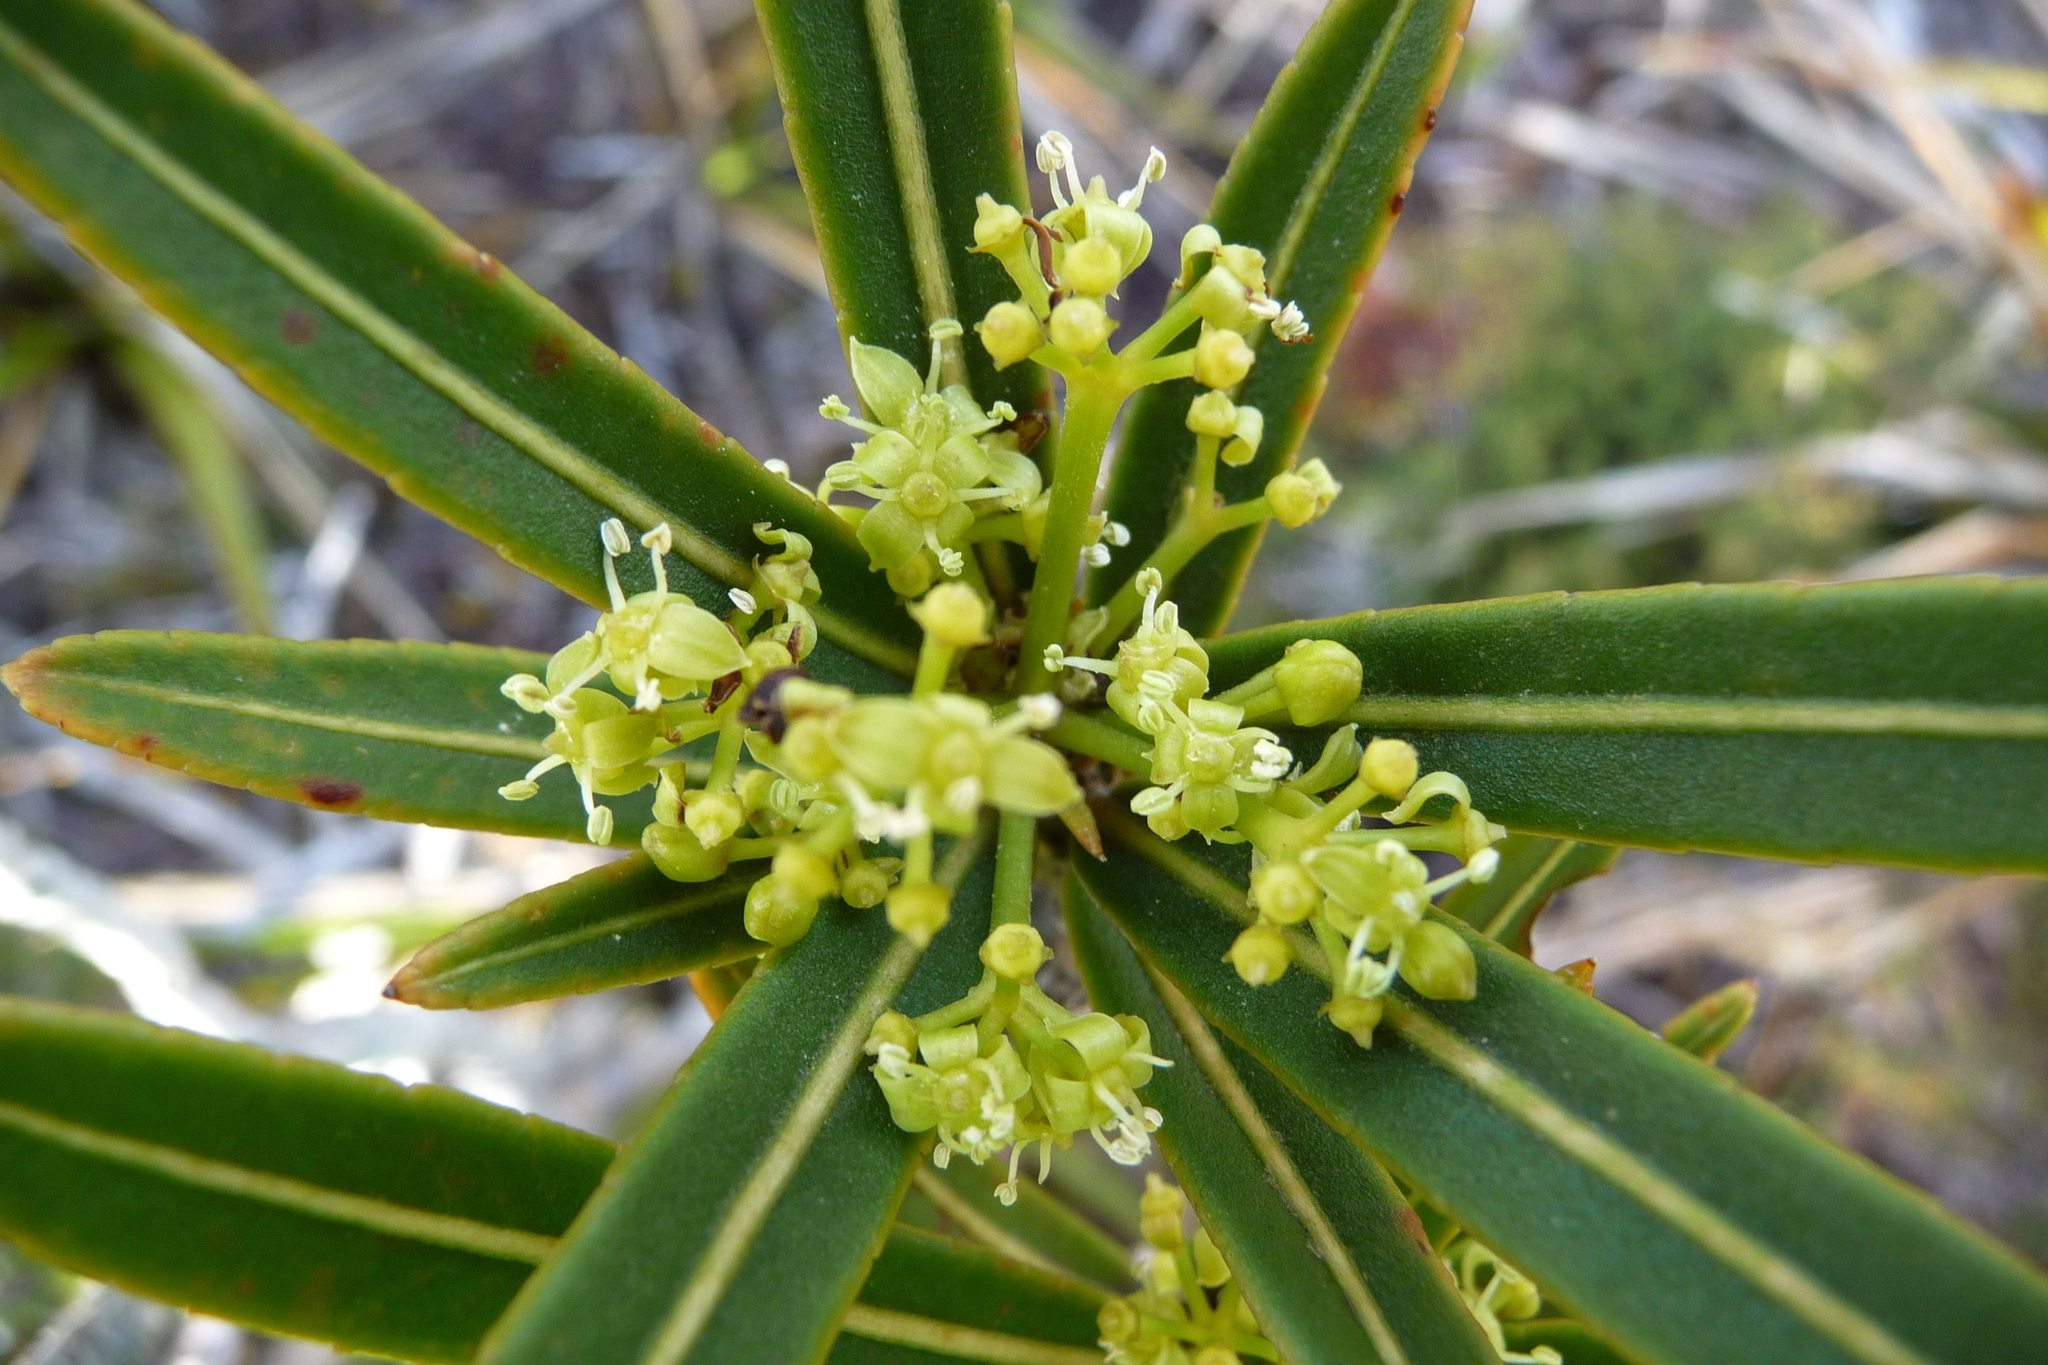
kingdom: Plantae
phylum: Tracheophyta
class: Magnoliopsida
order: Apiales
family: Araliaceae
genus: Pseudopanax
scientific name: Pseudopanax linearis
